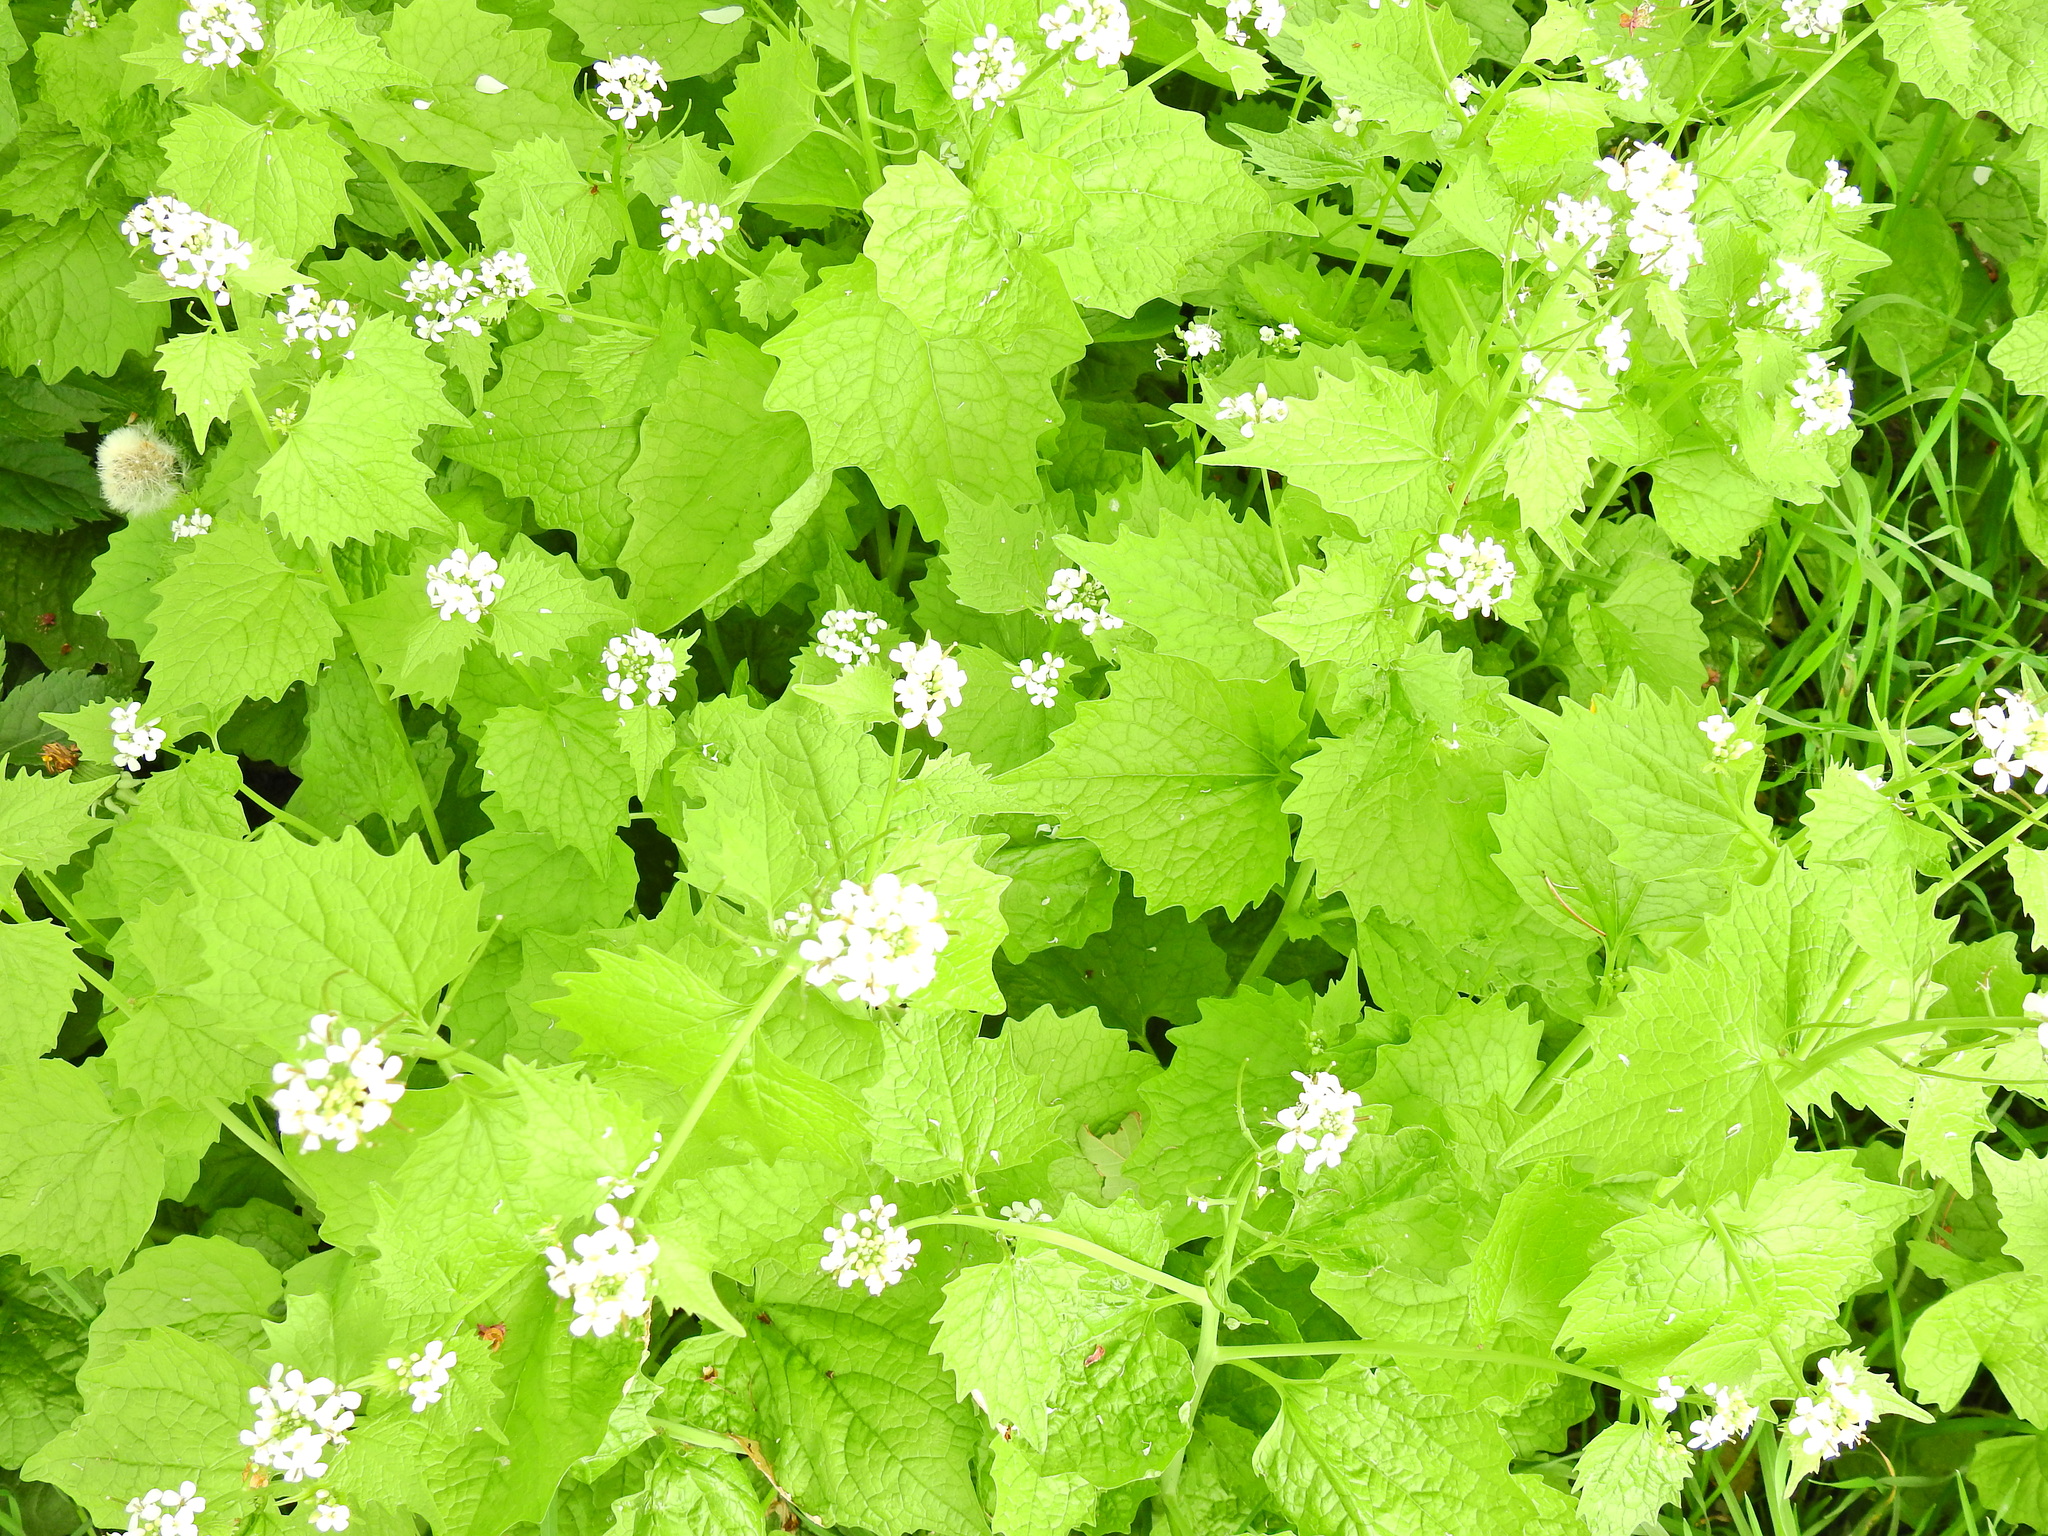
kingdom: Plantae
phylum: Tracheophyta
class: Magnoliopsida
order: Brassicales
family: Brassicaceae
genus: Alliaria
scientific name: Alliaria petiolata
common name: Garlic mustard
